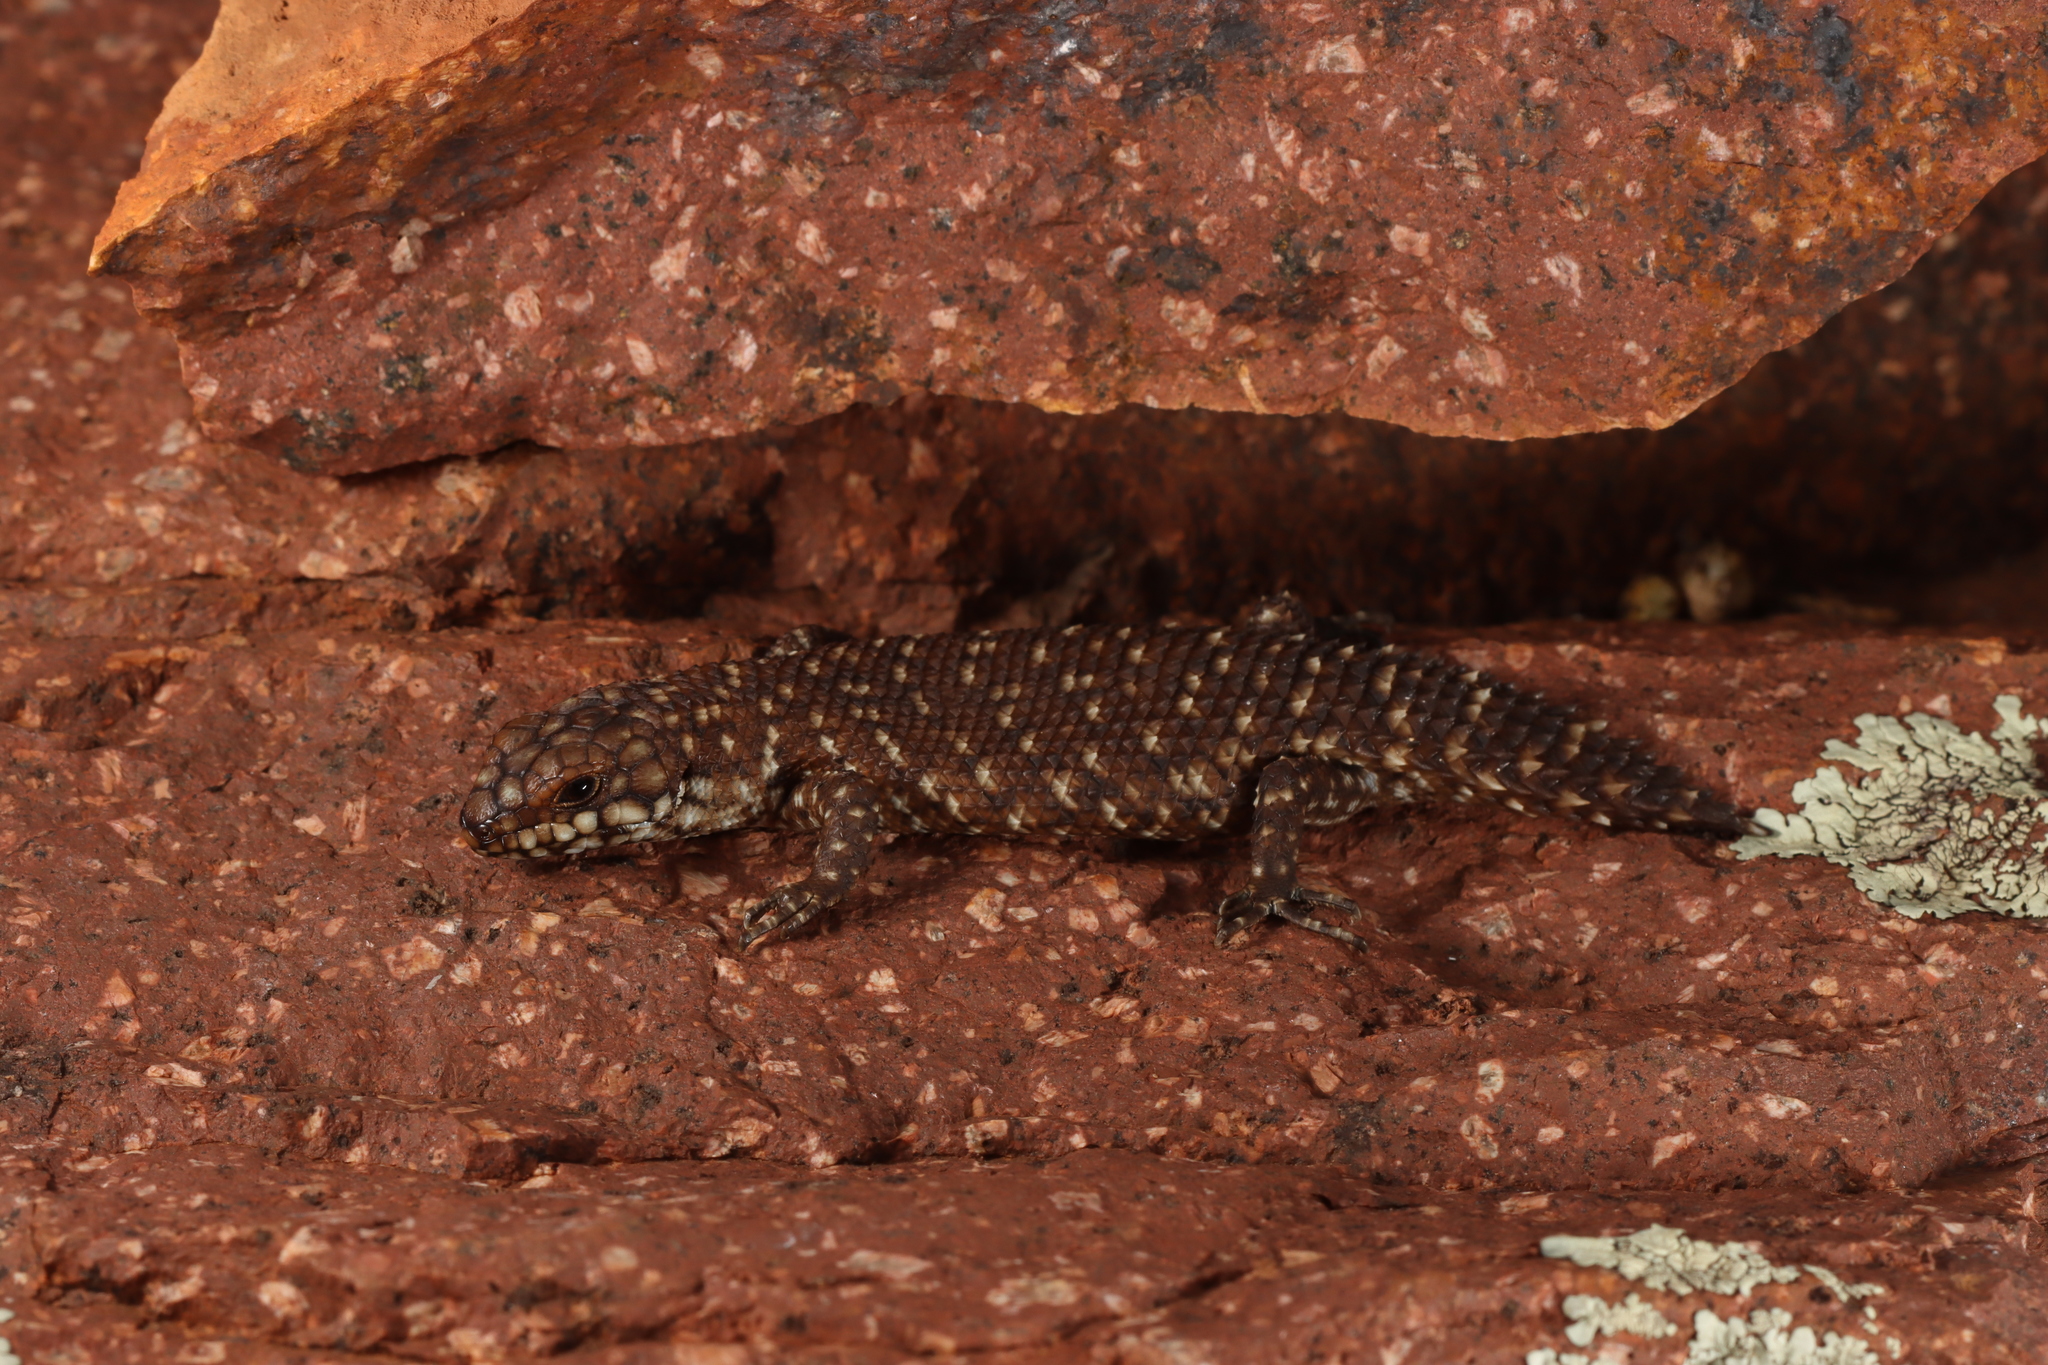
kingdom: Animalia
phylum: Chordata
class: Squamata
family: Scincidae
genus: Egernia
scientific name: Egernia stokesii
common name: Gidgee skink
